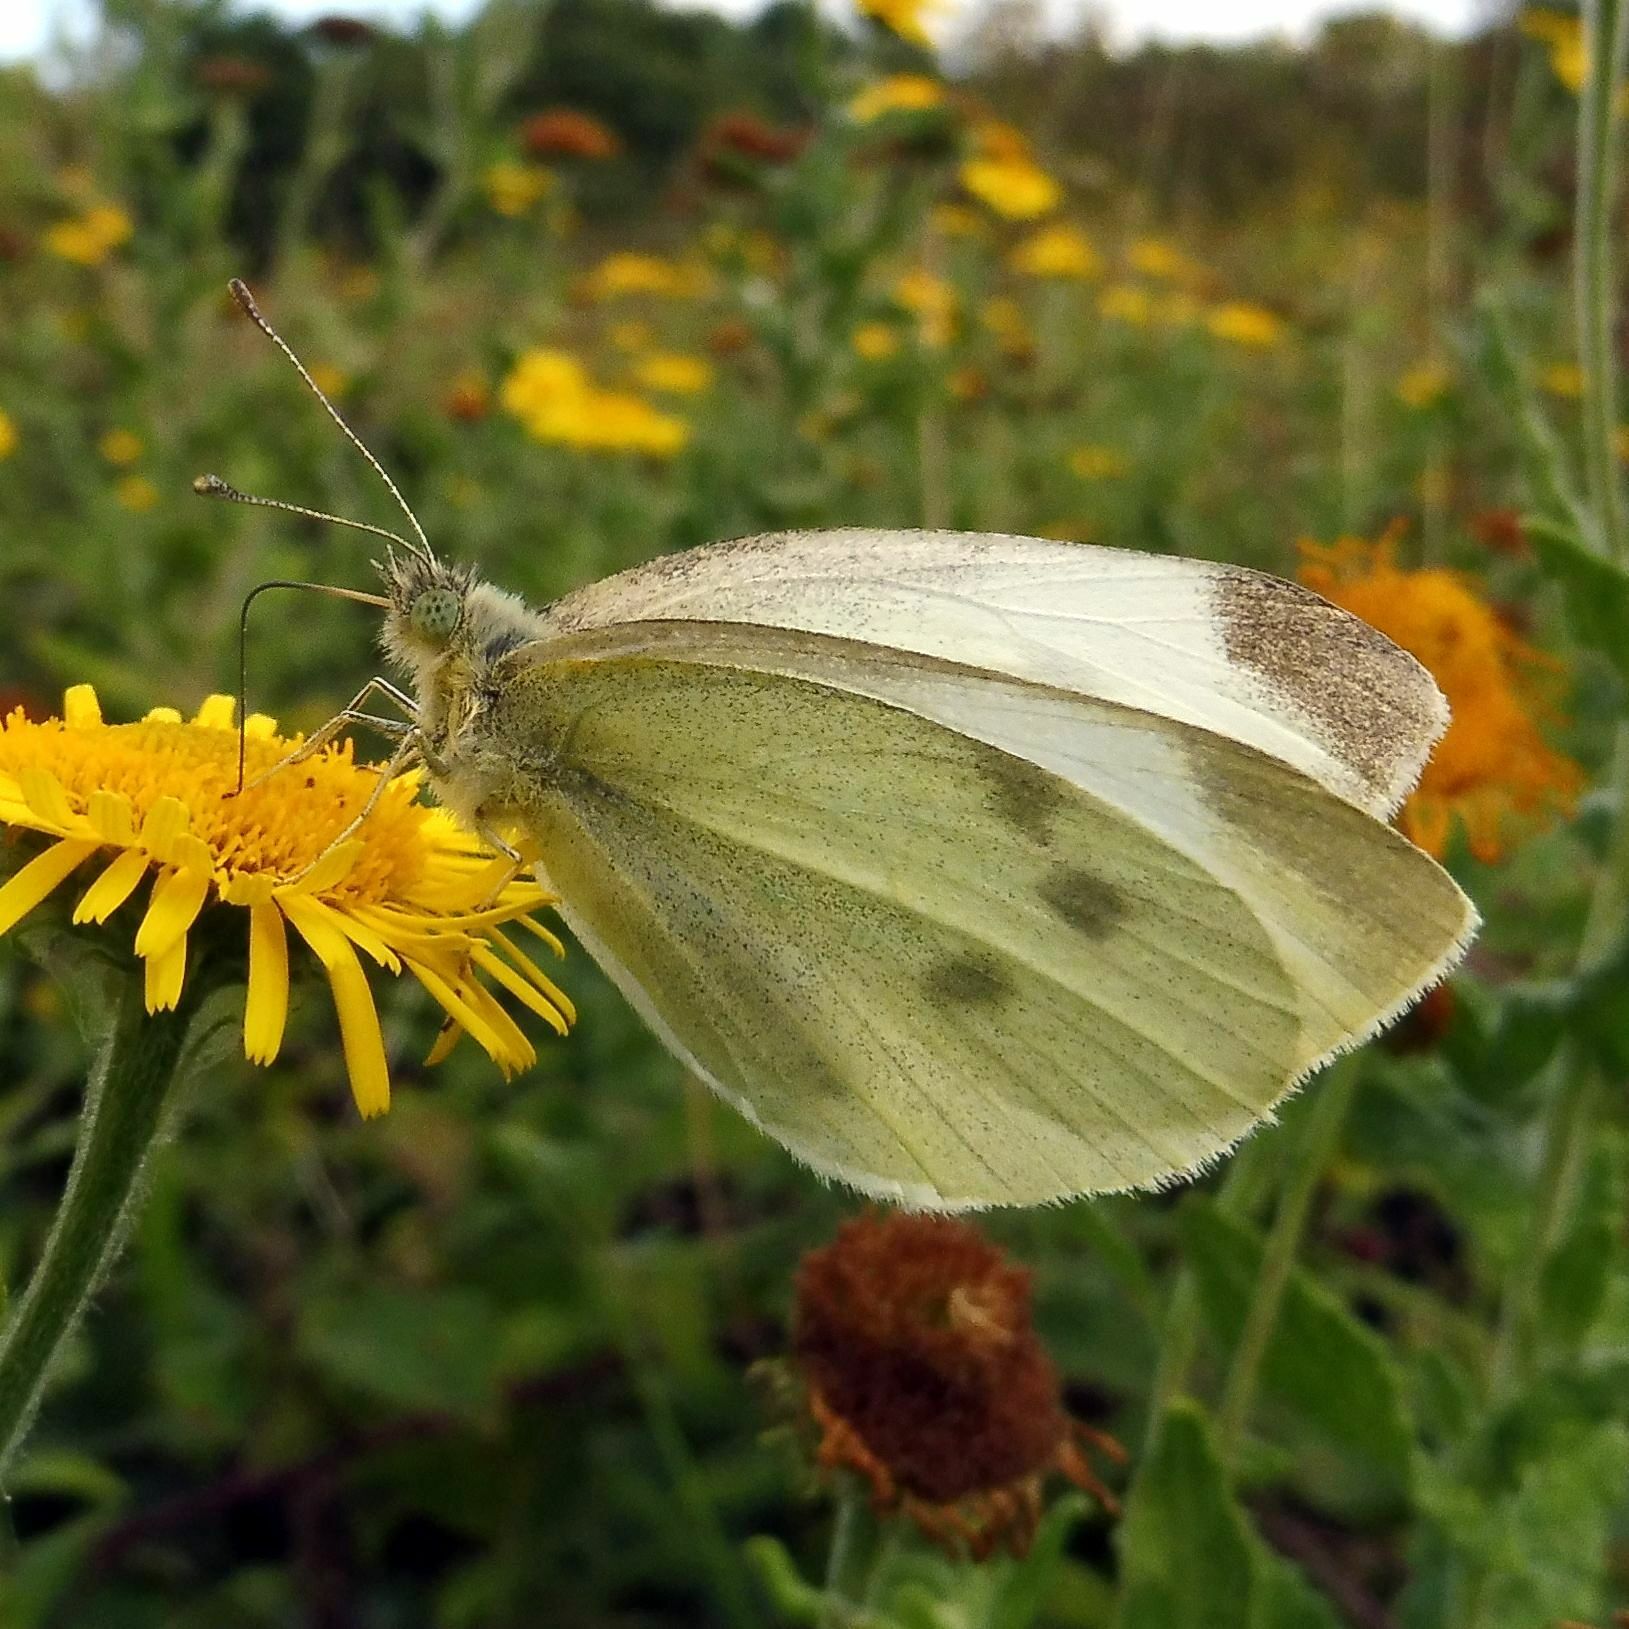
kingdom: Animalia
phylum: Arthropoda
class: Insecta
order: Lepidoptera
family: Pieridae
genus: Pieris
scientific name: Pieris rapae
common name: Small white
